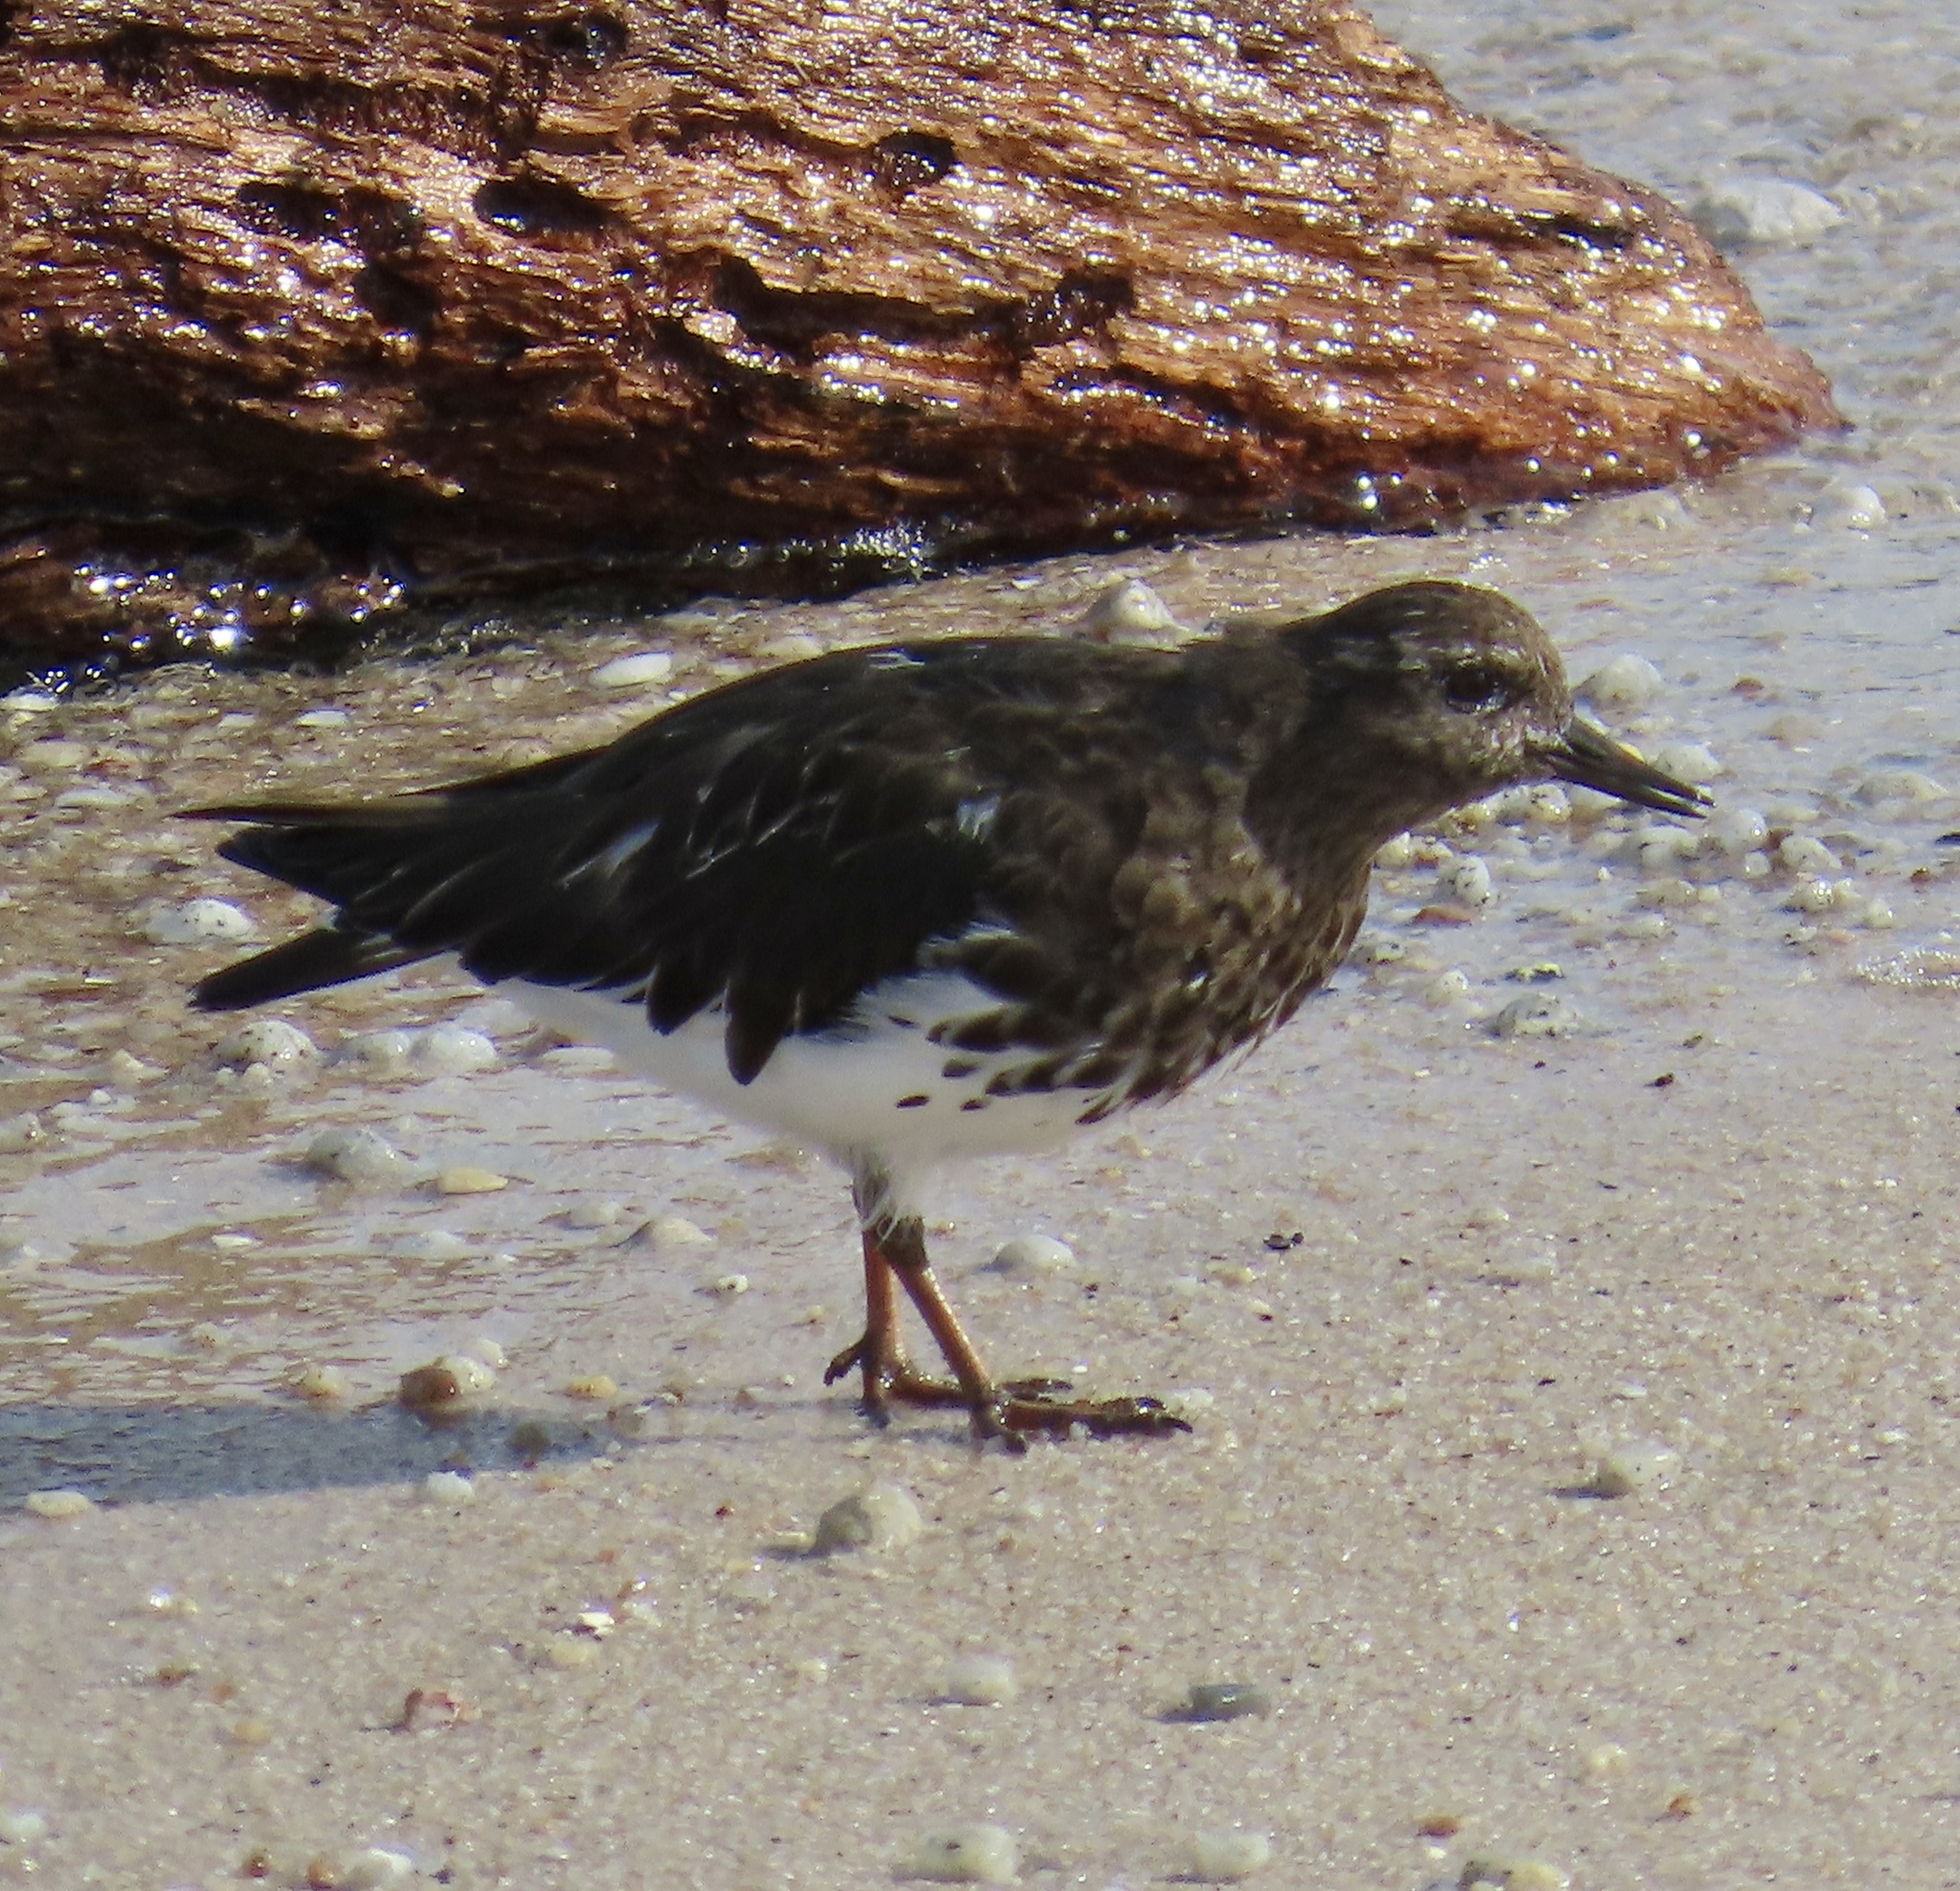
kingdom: Animalia
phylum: Chordata
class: Aves
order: Charadriiformes
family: Scolopacidae
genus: Arenaria
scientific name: Arenaria melanocephala
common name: Black turnstone
